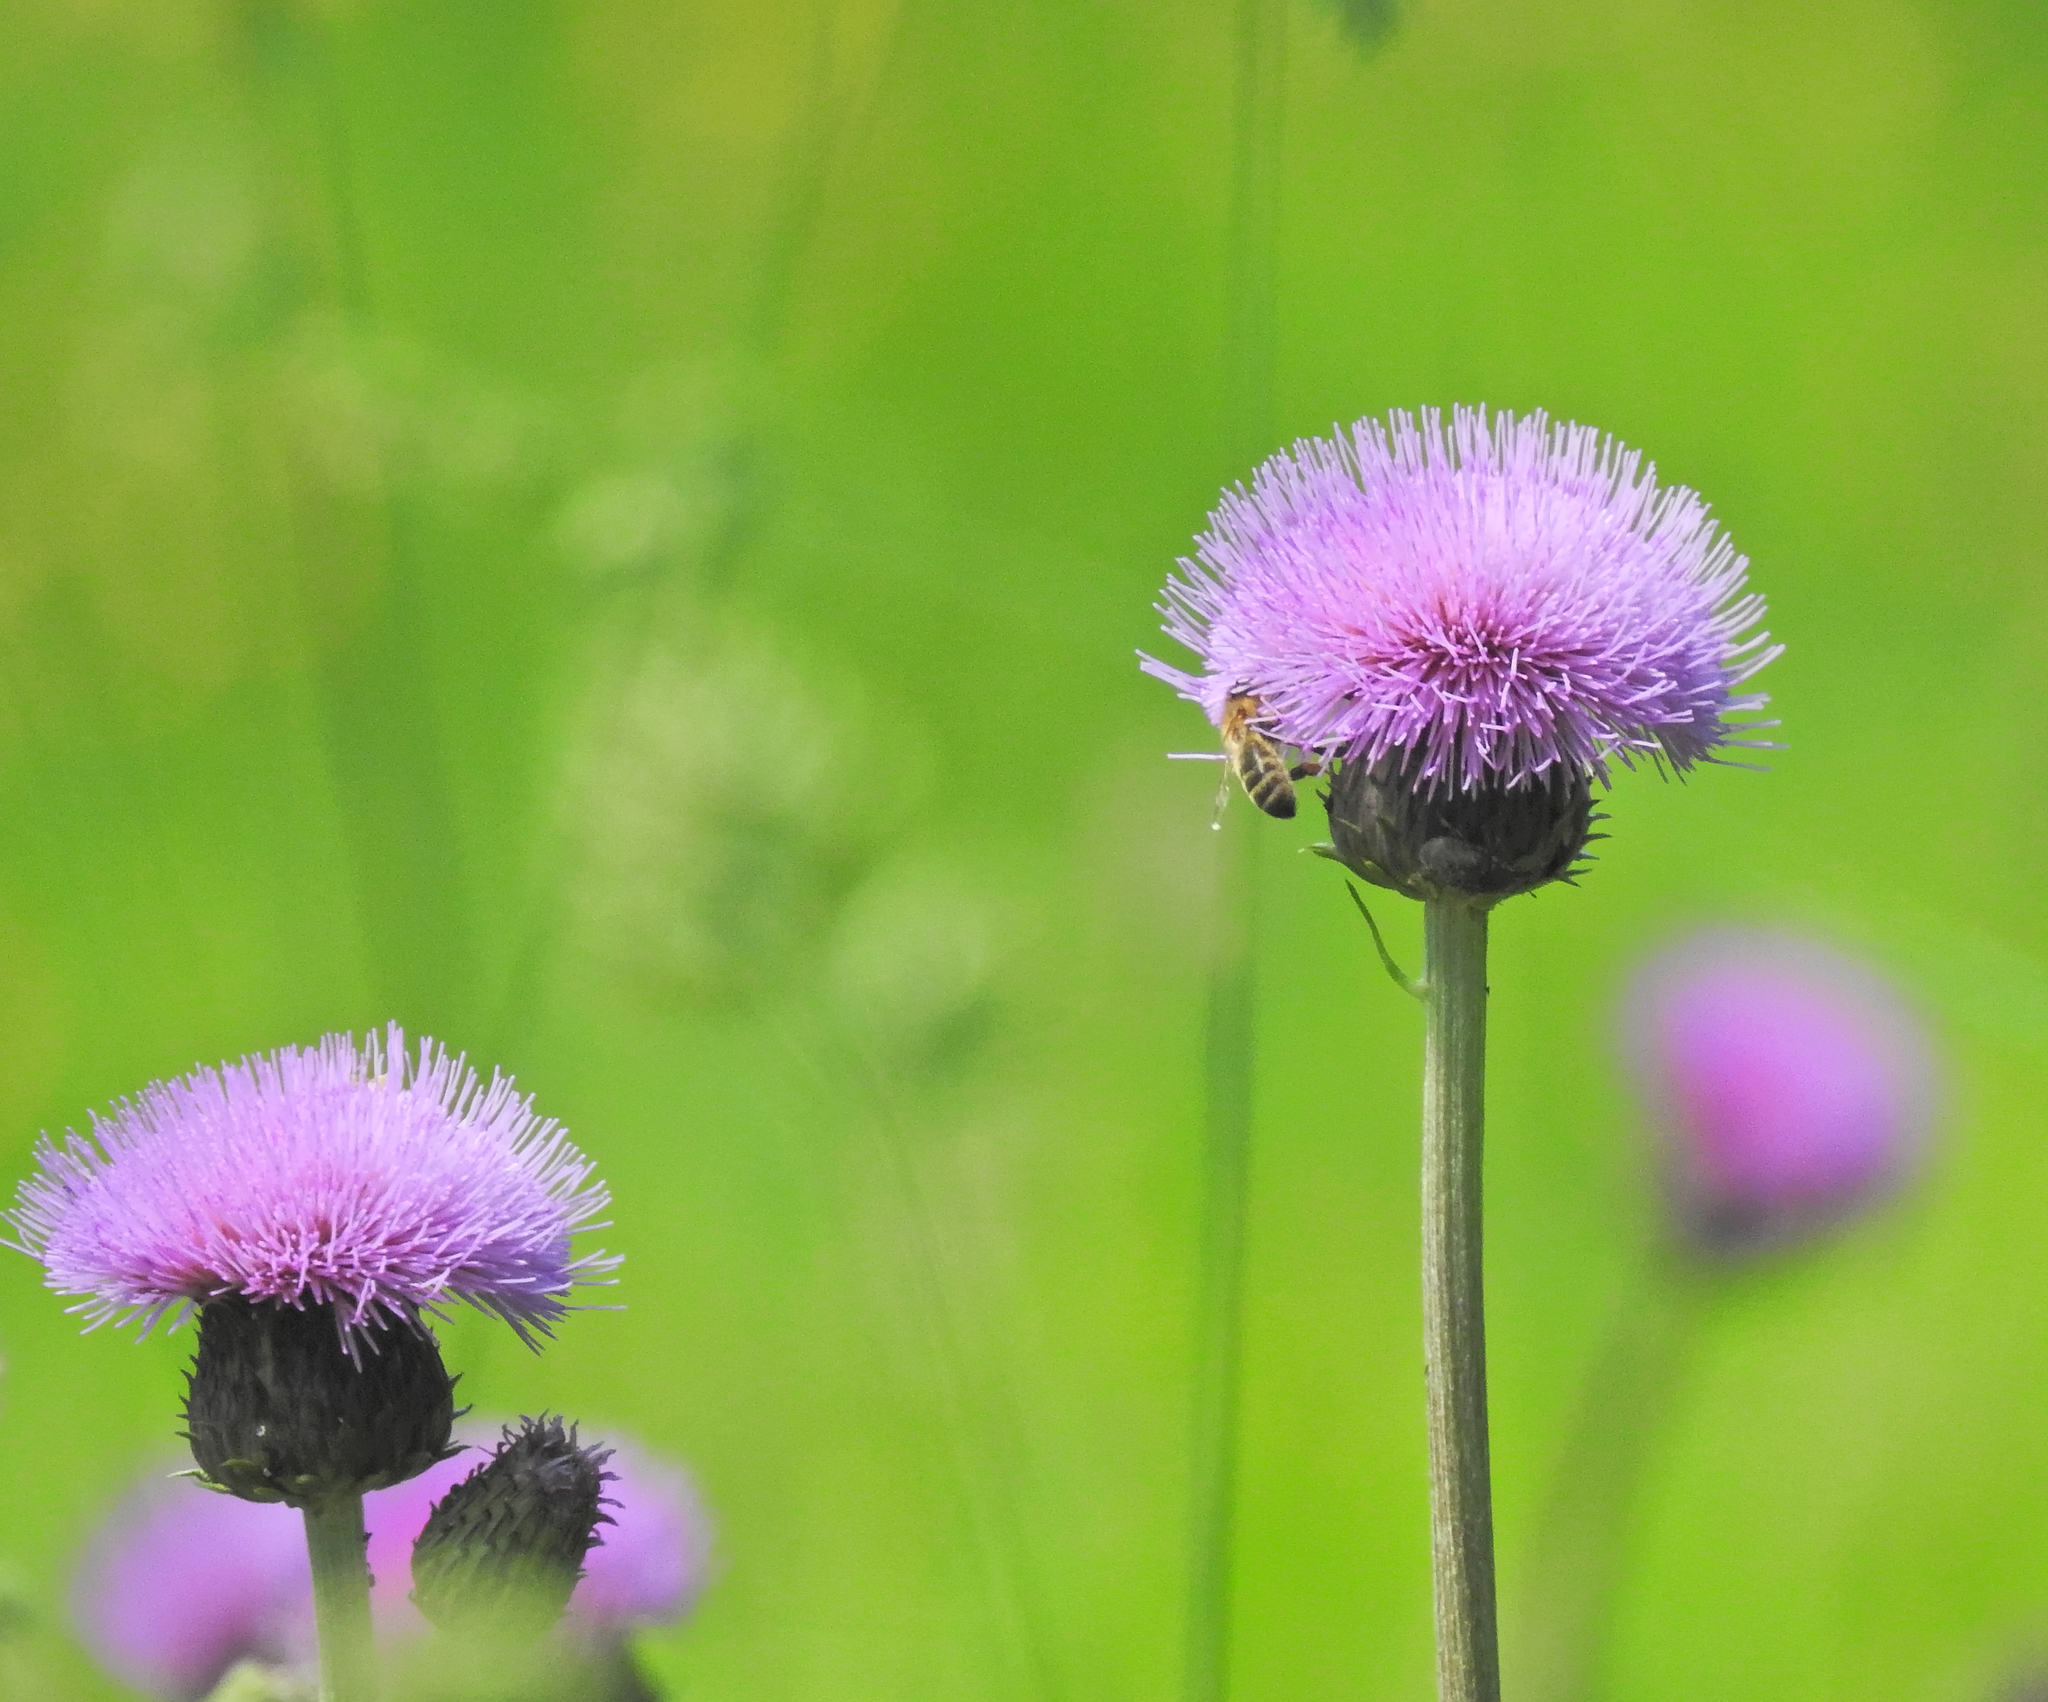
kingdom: Animalia
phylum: Arthropoda
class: Insecta
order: Hymenoptera
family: Apidae
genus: Apis
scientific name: Apis mellifera
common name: Honey bee
